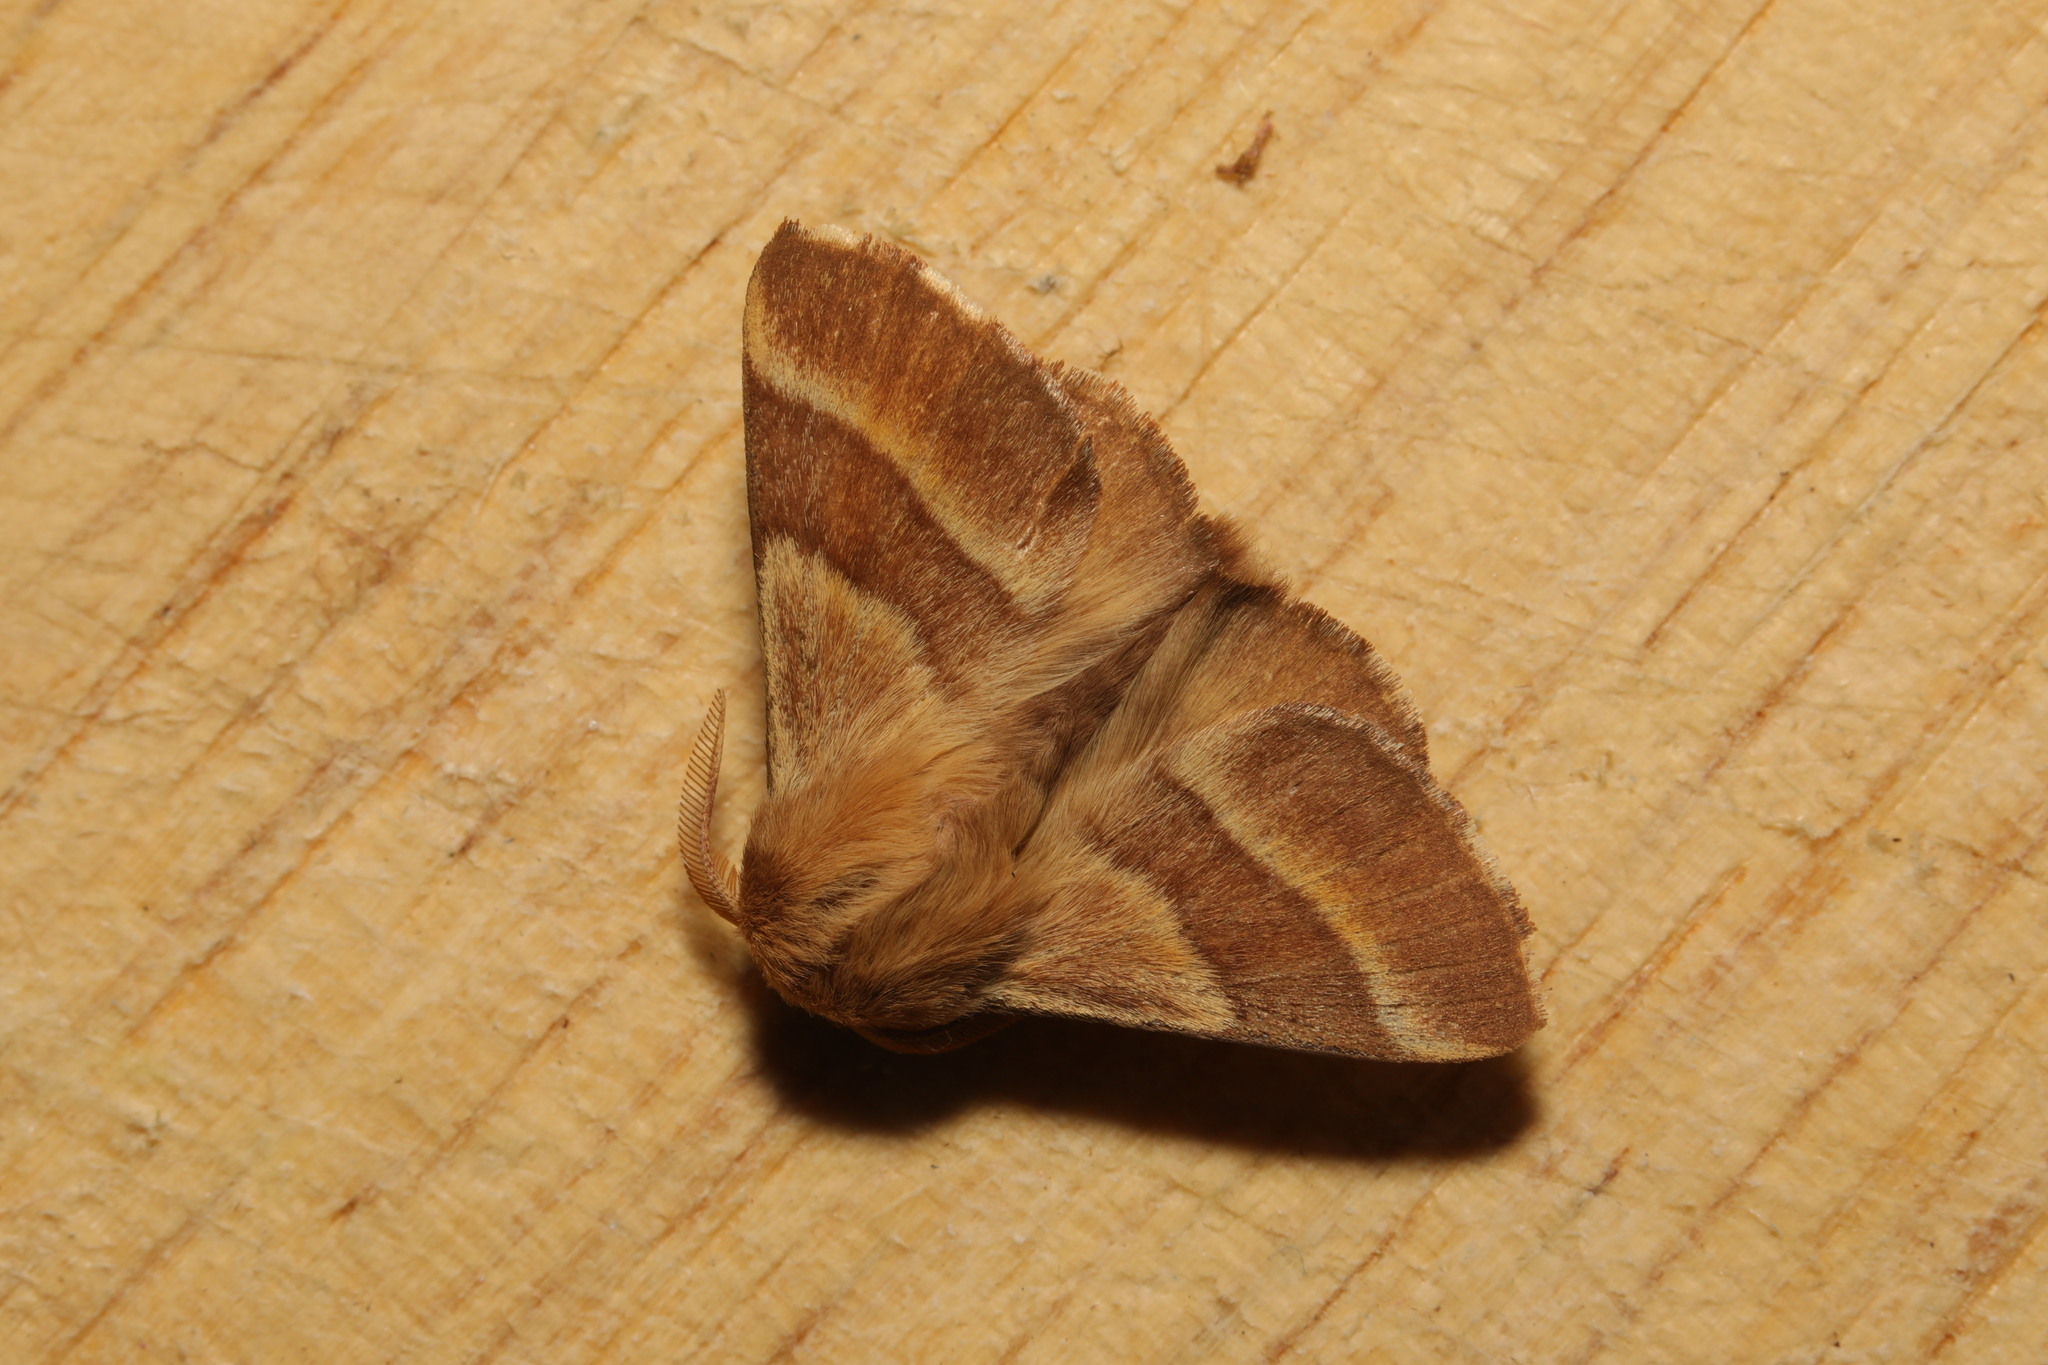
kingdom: Animalia
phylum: Arthropoda
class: Insecta
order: Lepidoptera
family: Lasiocampidae
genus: Malacosoma
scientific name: Malacosoma neustria
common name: The lackey
